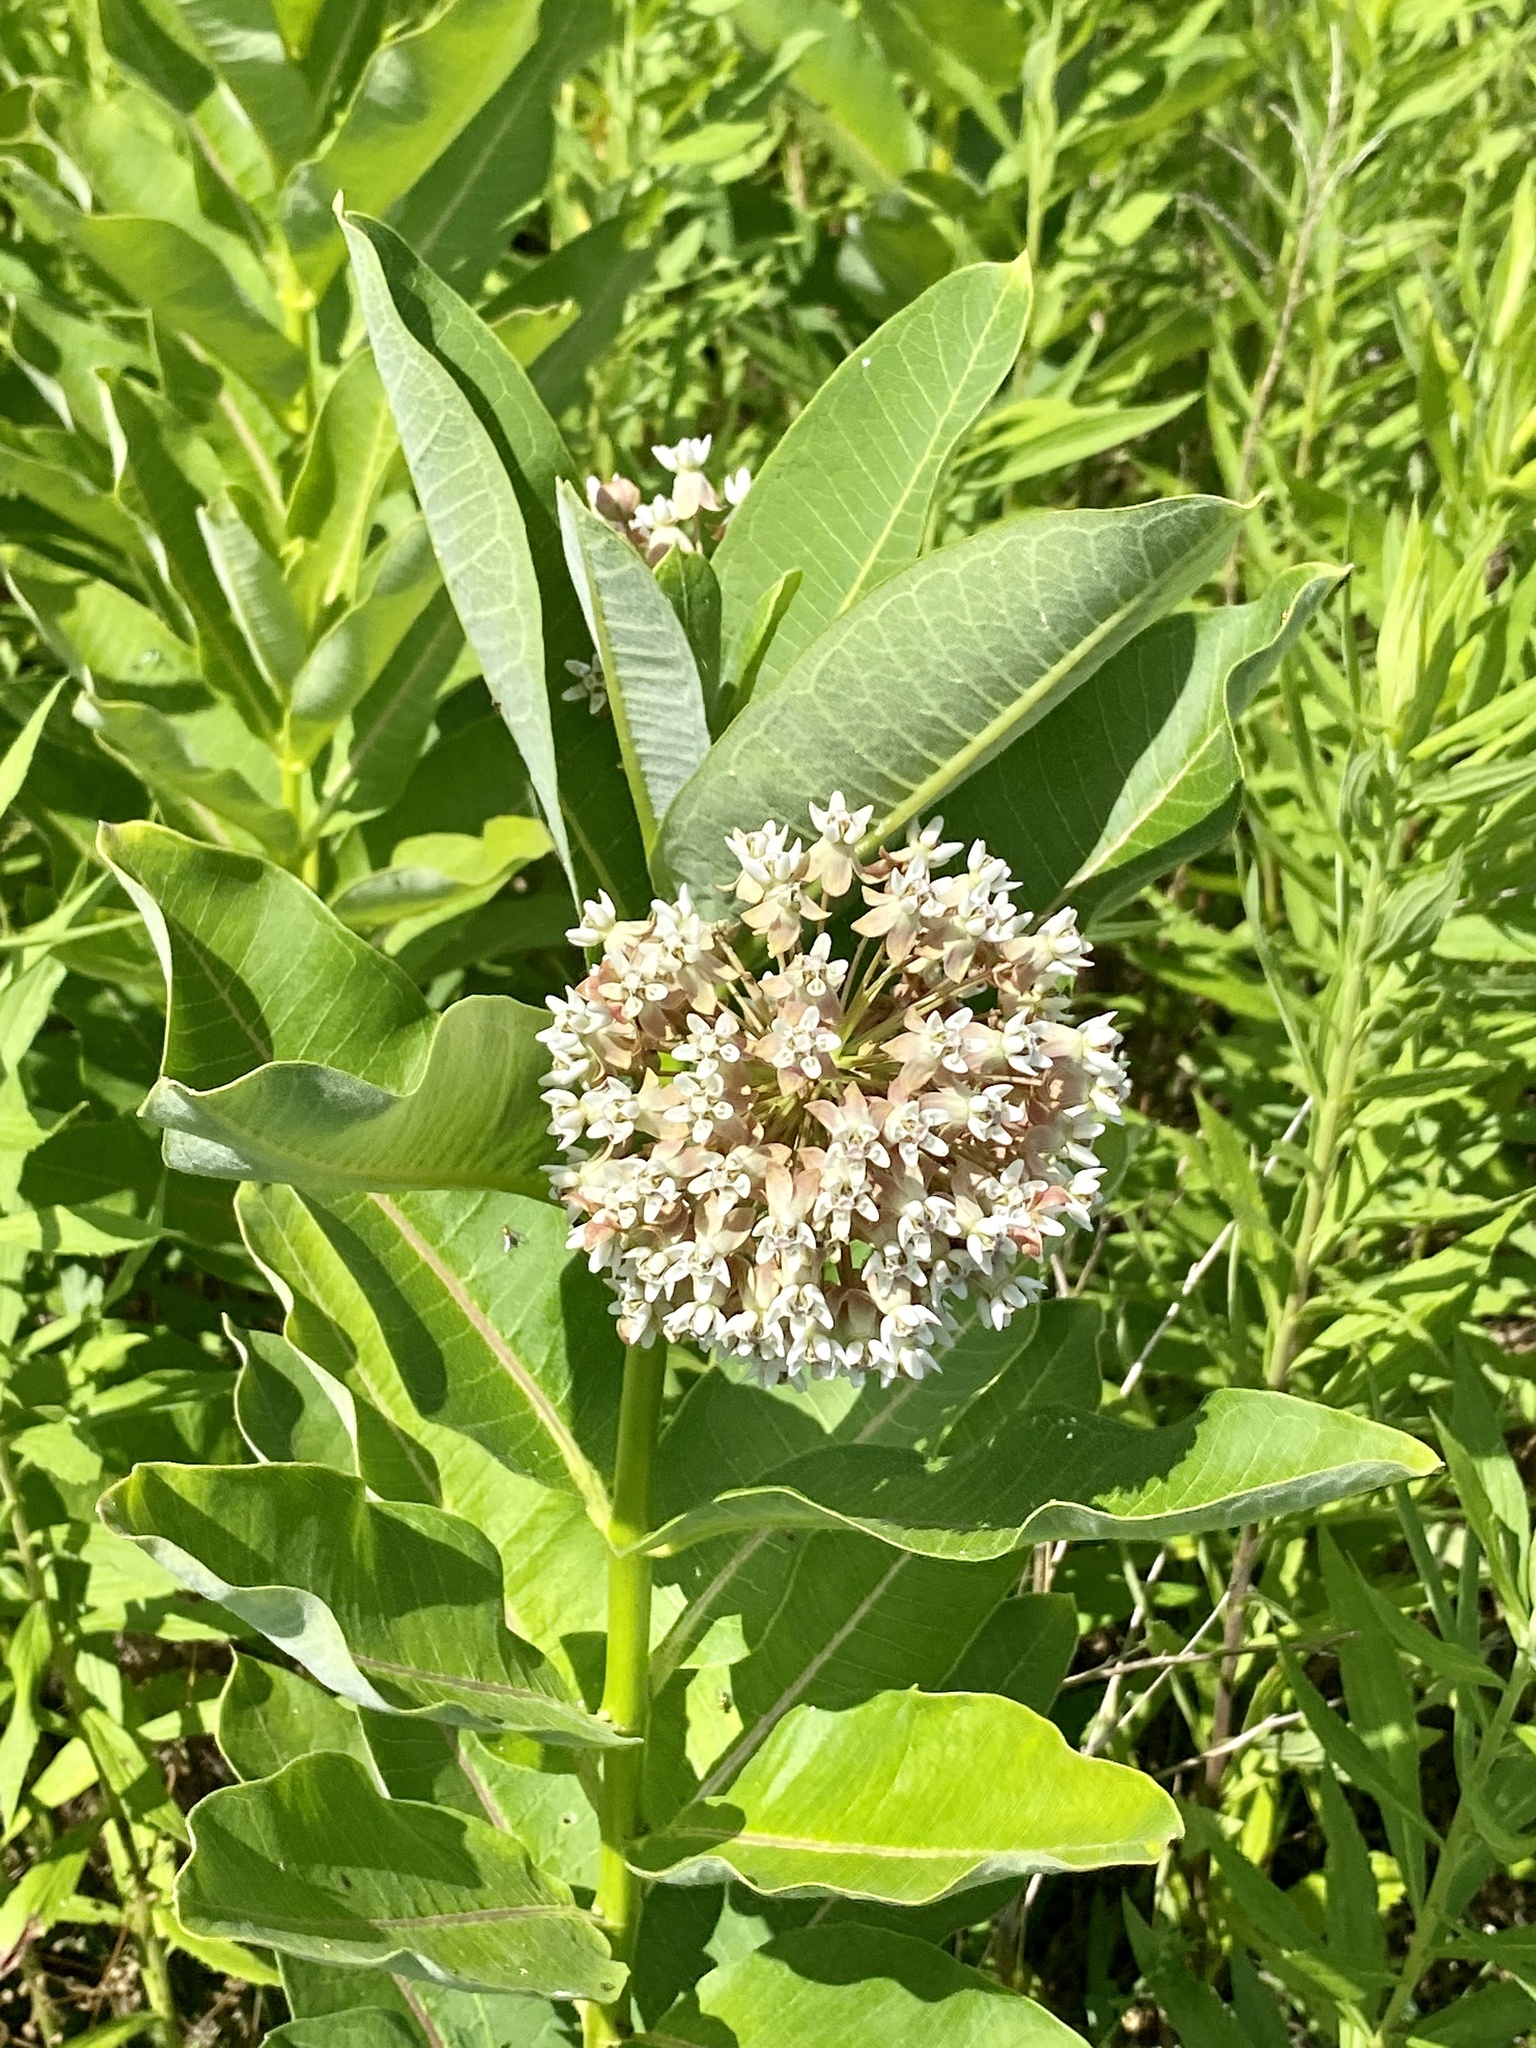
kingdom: Plantae
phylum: Tracheophyta
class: Magnoliopsida
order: Gentianales
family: Apocynaceae
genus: Asclepias
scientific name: Asclepias syriaca
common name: Common milkweed
